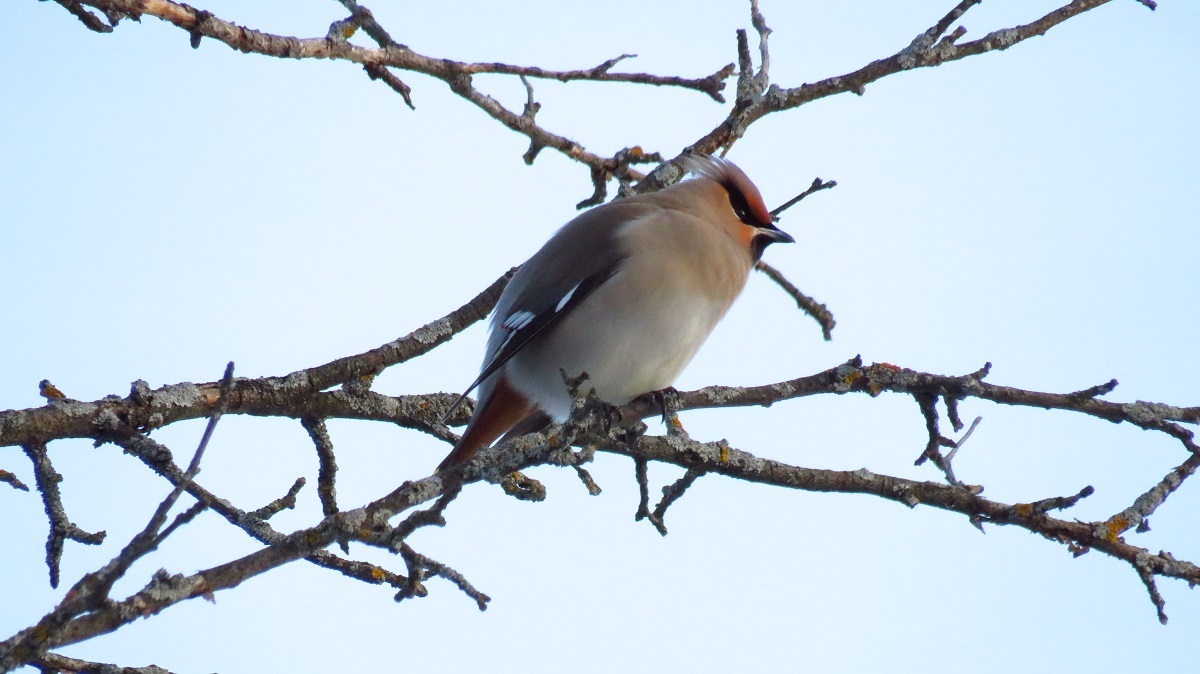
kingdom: Animalia
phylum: Chordata
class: Aves
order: Passeriformes
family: Bombycillidae
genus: Bombycilla
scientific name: Bombycilla garrulus
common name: Bohemian waxwing
